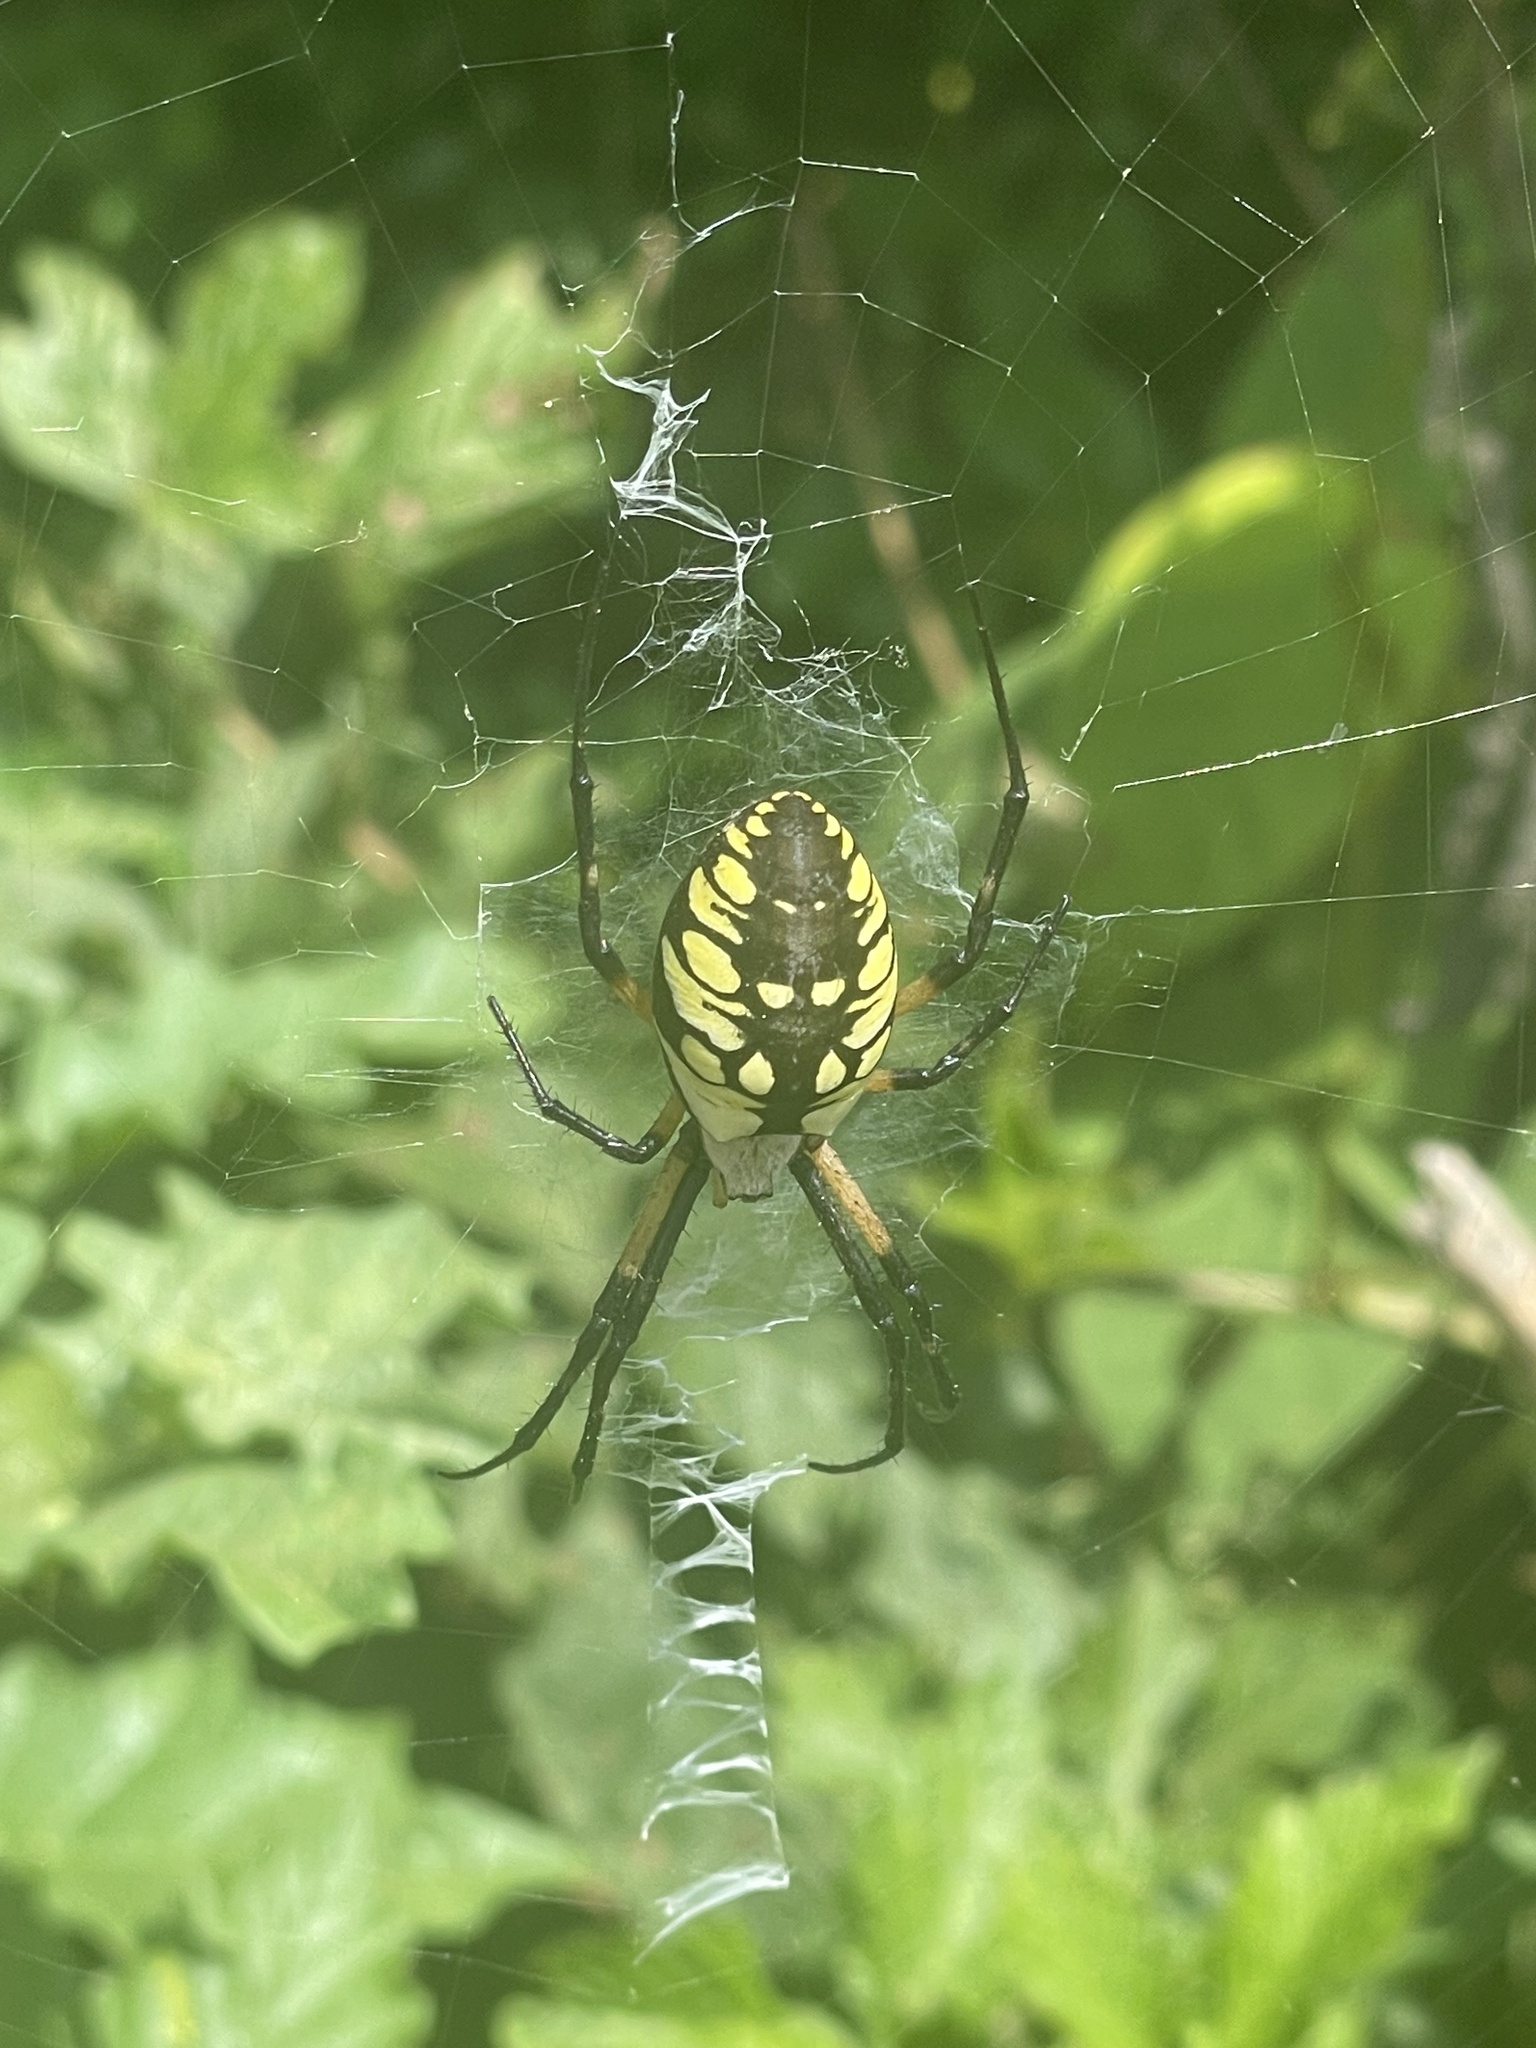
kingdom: Animalia
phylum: Arthropoda
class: Arachnida
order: Araneae
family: Araneidae
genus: Argiope
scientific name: Argiope aurantia
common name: Orb weavers
